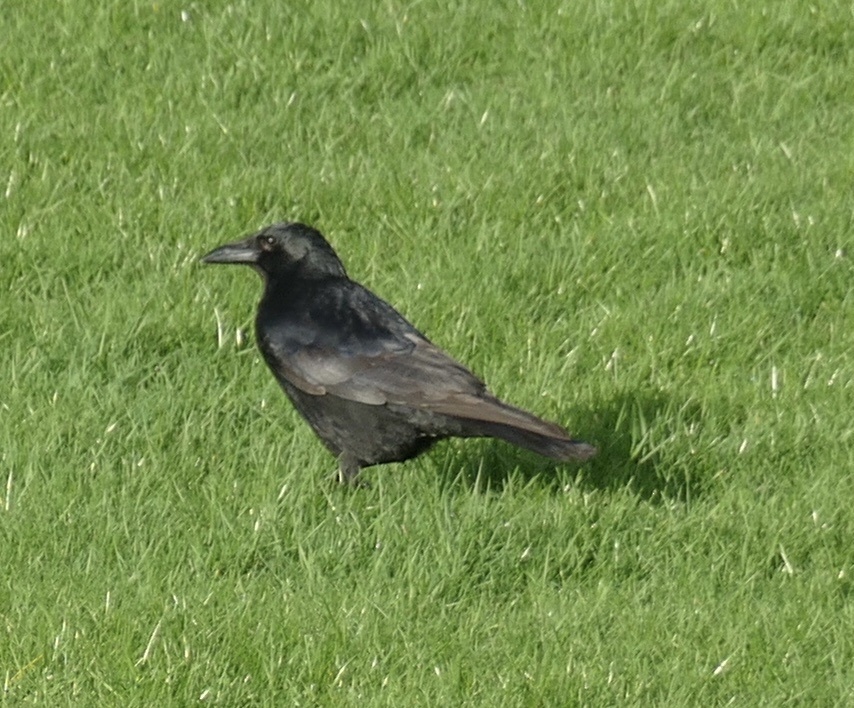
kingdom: Animalia
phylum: Chordata
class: Aves
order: Passeriformes
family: Corvidae
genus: Corvus
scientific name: Corvus corone
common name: Carrion crow
